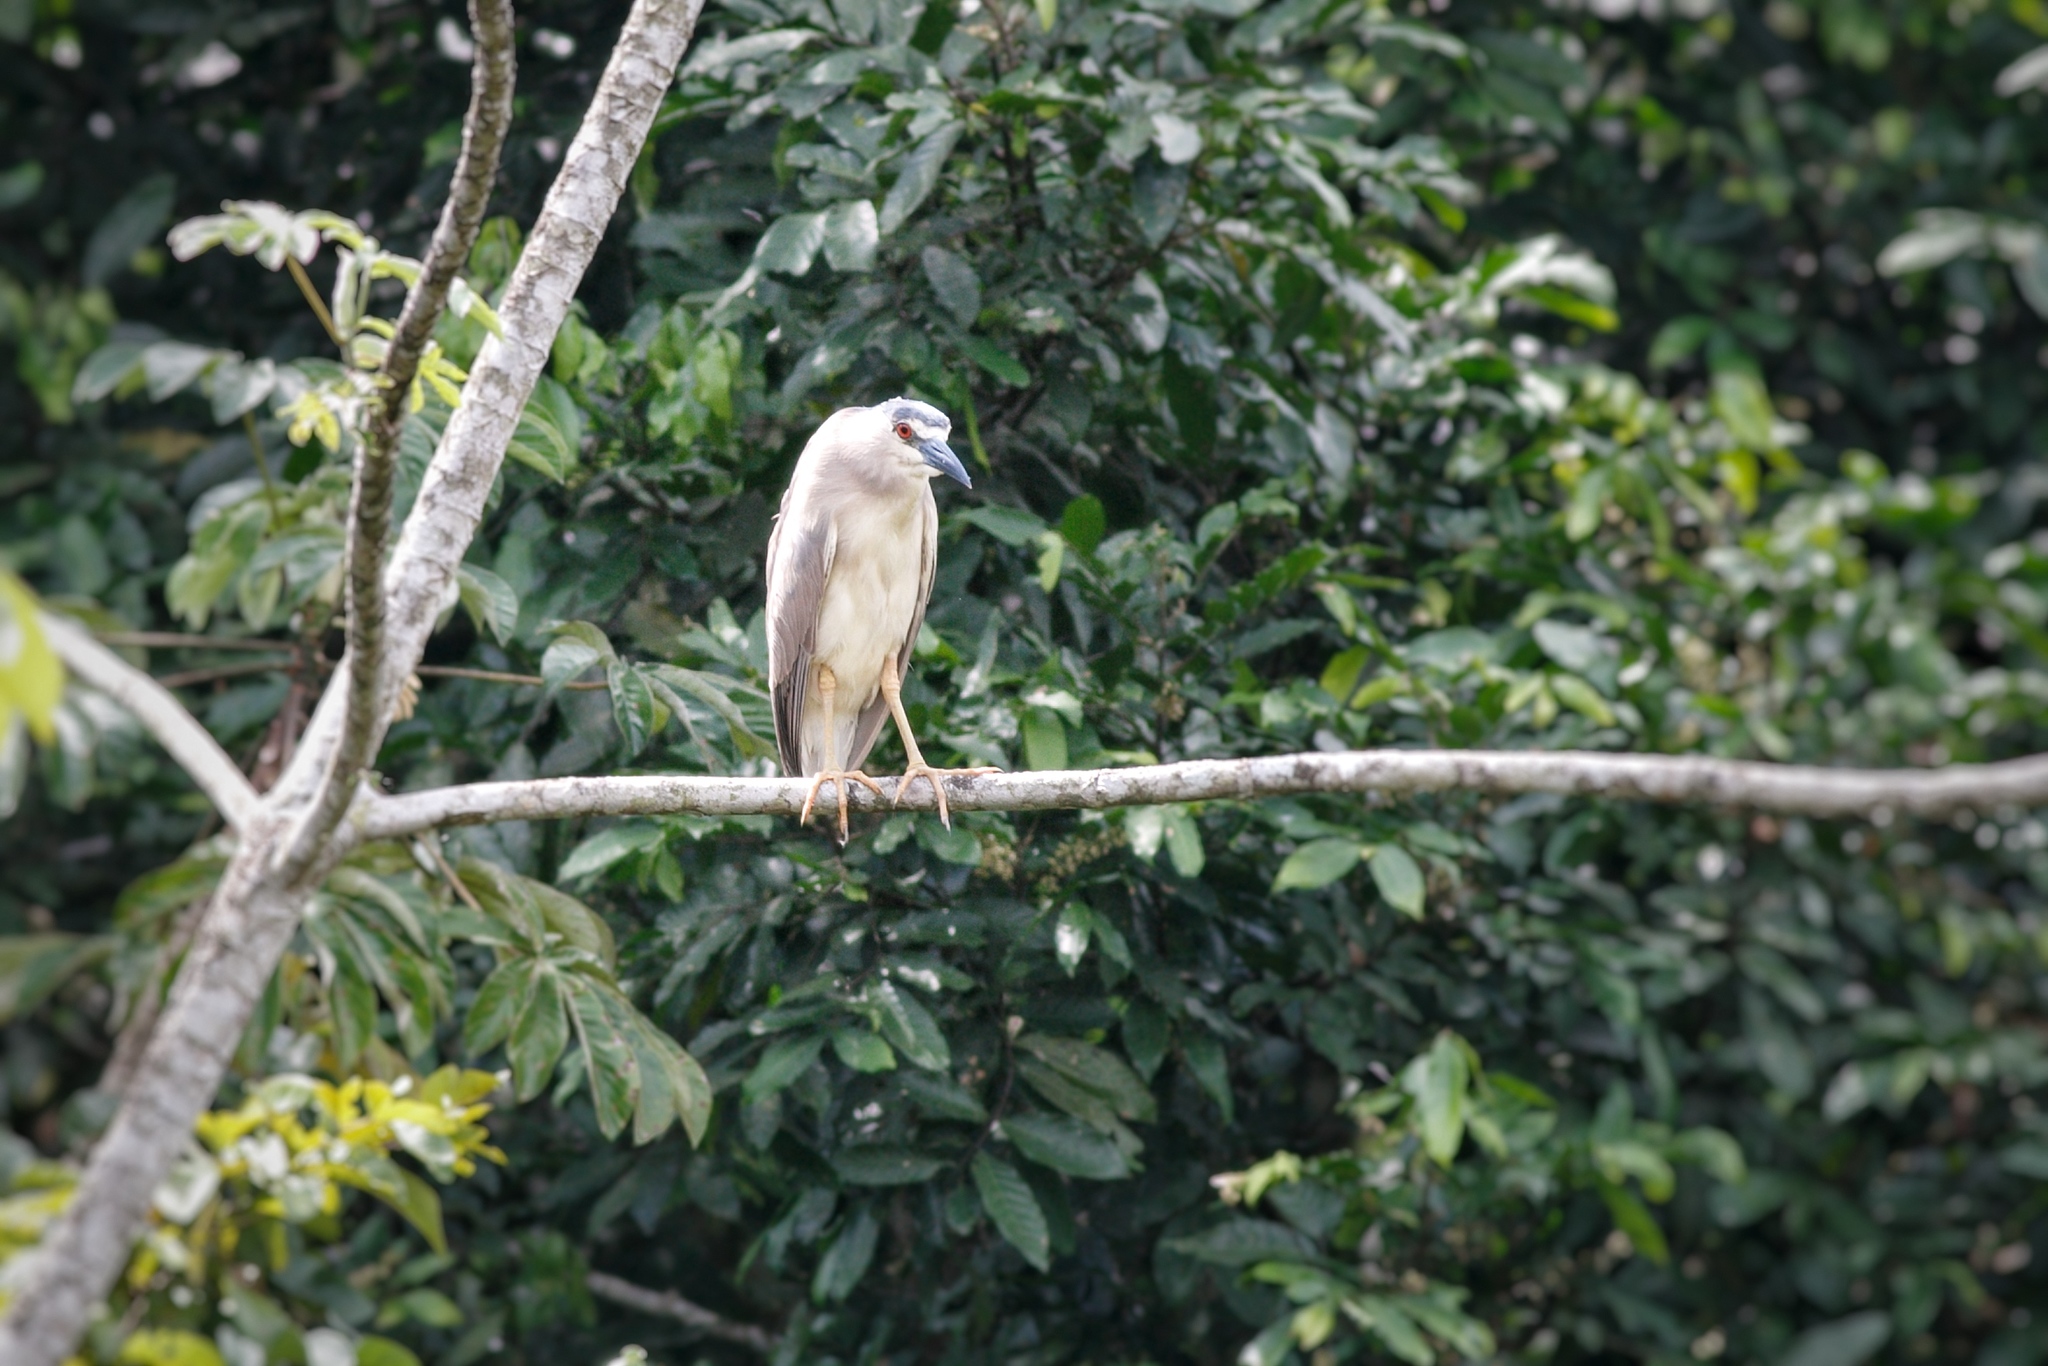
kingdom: Animalia
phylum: Chordata
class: Aves
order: Pelecaniformes
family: Ardeidae
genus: Nycticorax
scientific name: Nycticorax nycticorax
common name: Black-crowned night heron
